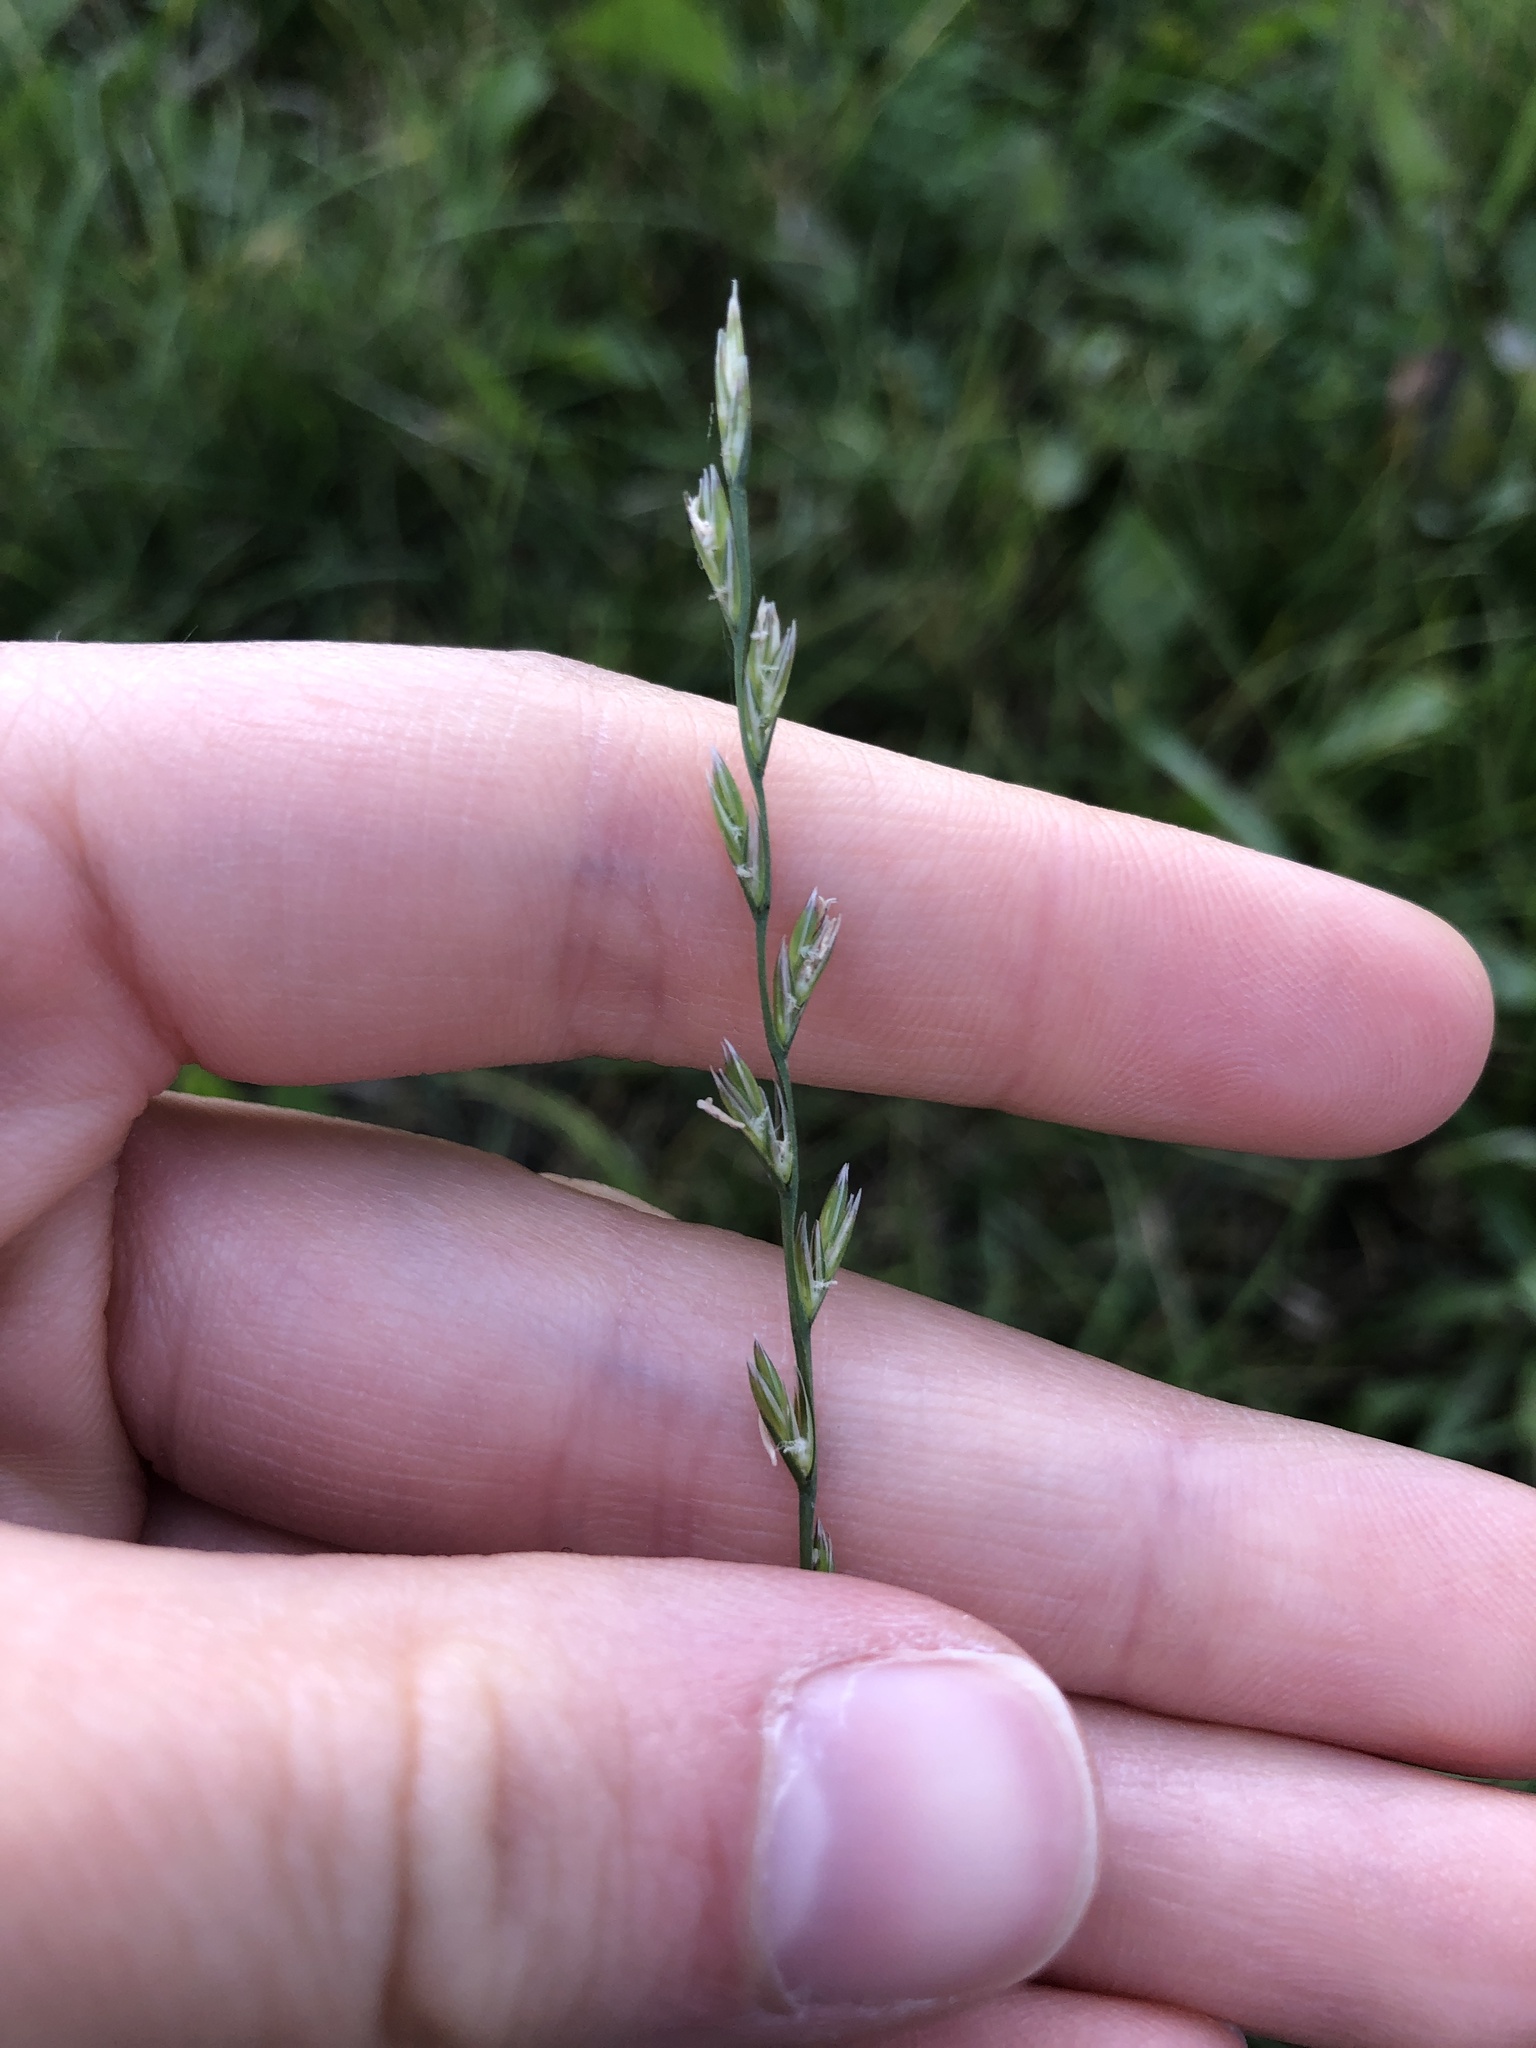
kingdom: Plantae
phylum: Tracheophyta
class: Liliopsida
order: Poales
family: Poaceae
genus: Lolium
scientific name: Lolium perenne
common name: Perennial ryegrass
